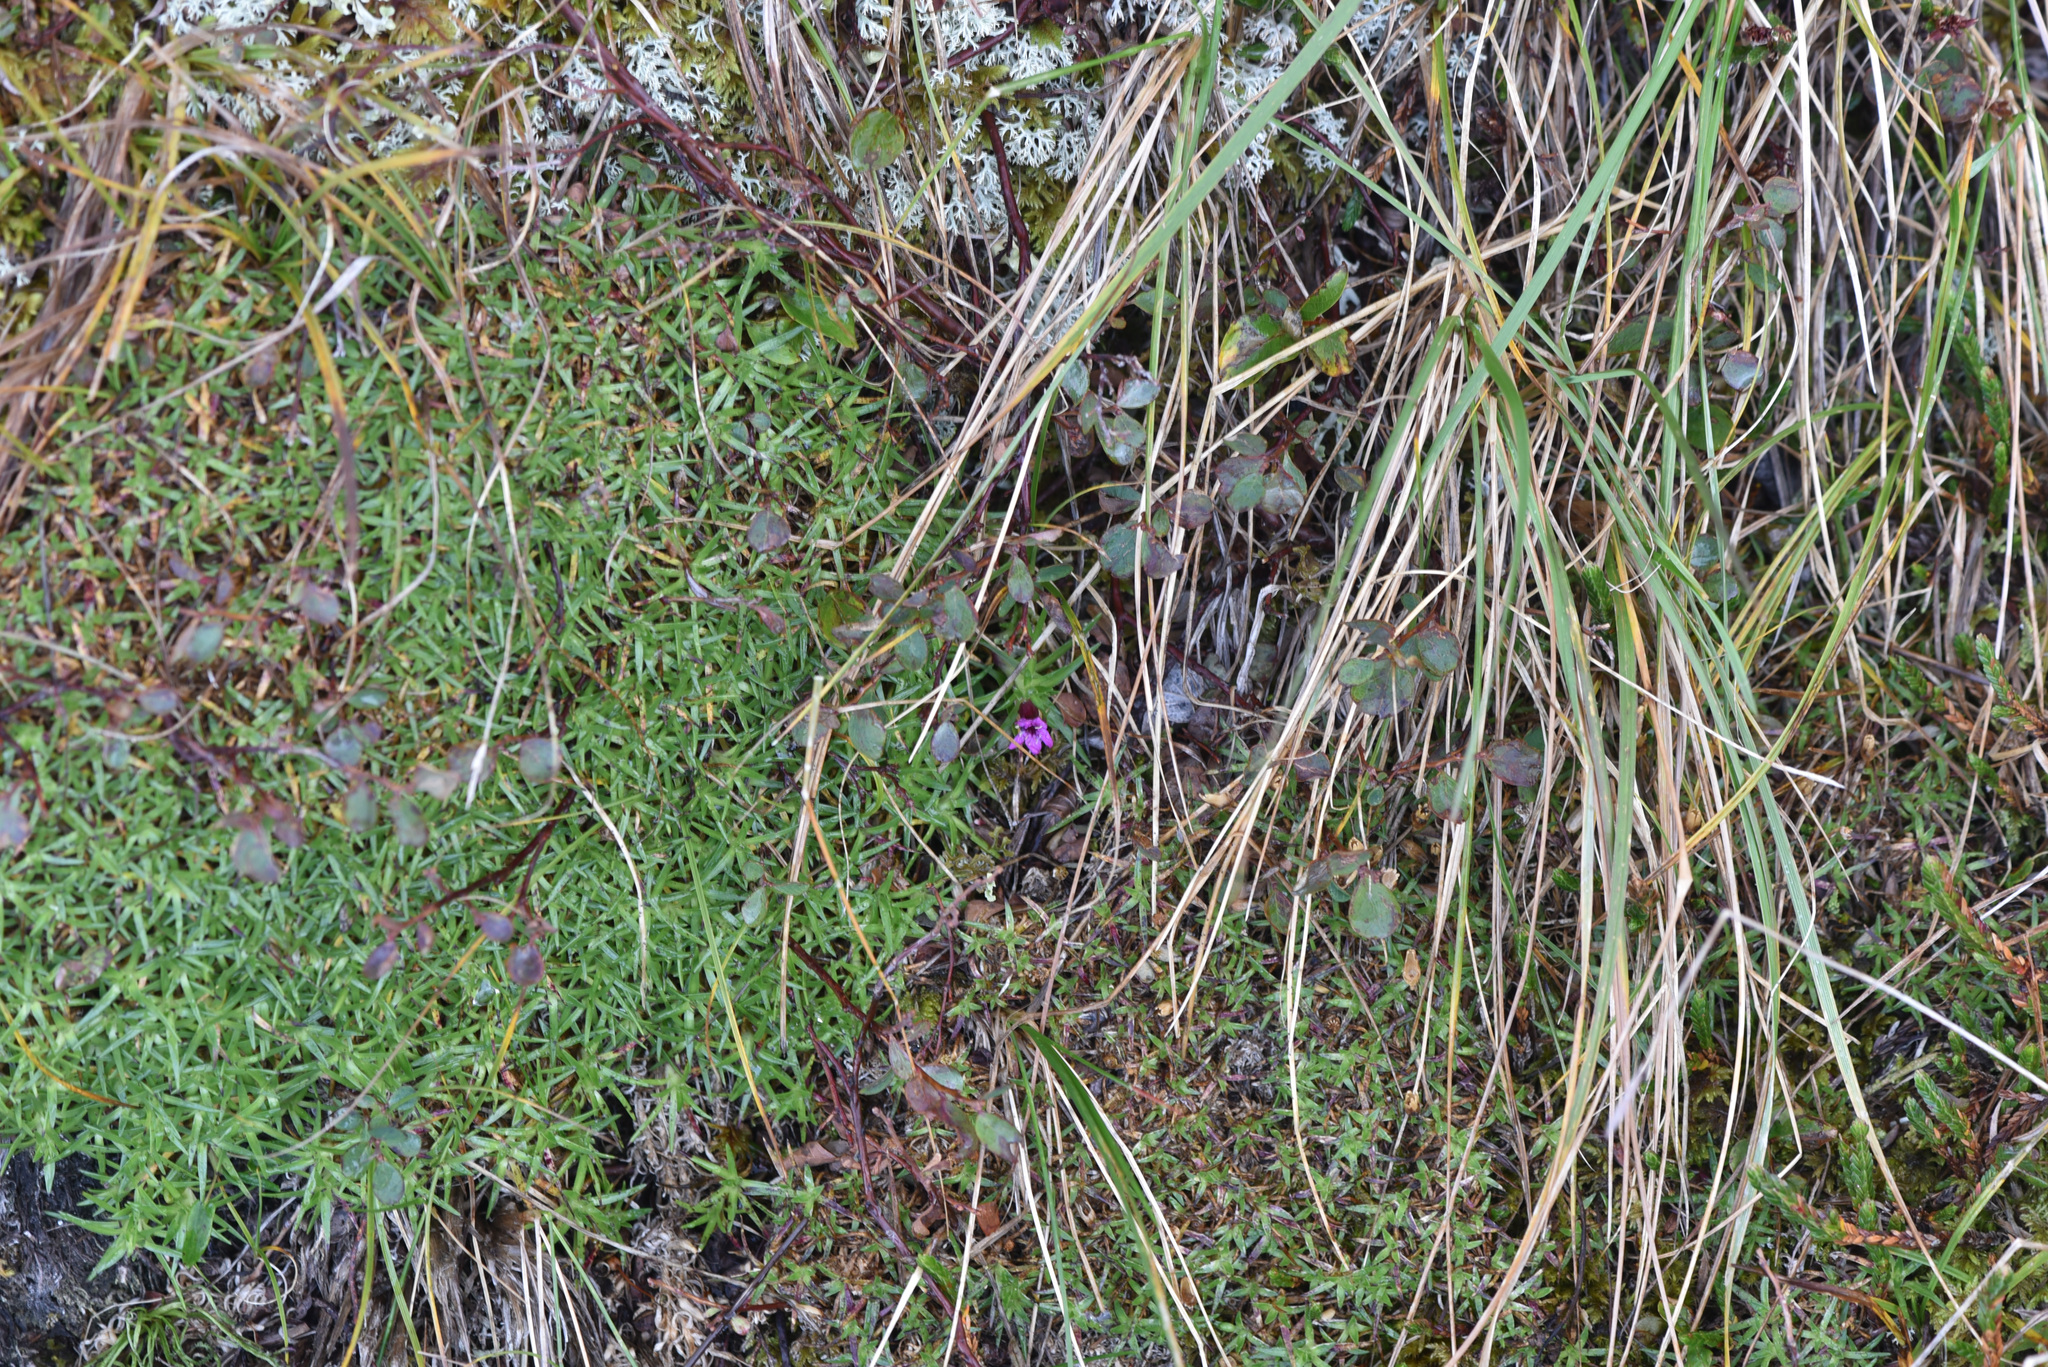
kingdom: Plantae
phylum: Tracheophyta
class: Magnoliopsida
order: Caryophyllales
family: Caryophyllaceae
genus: Silene
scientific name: Silene acaulis
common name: Moss campion
